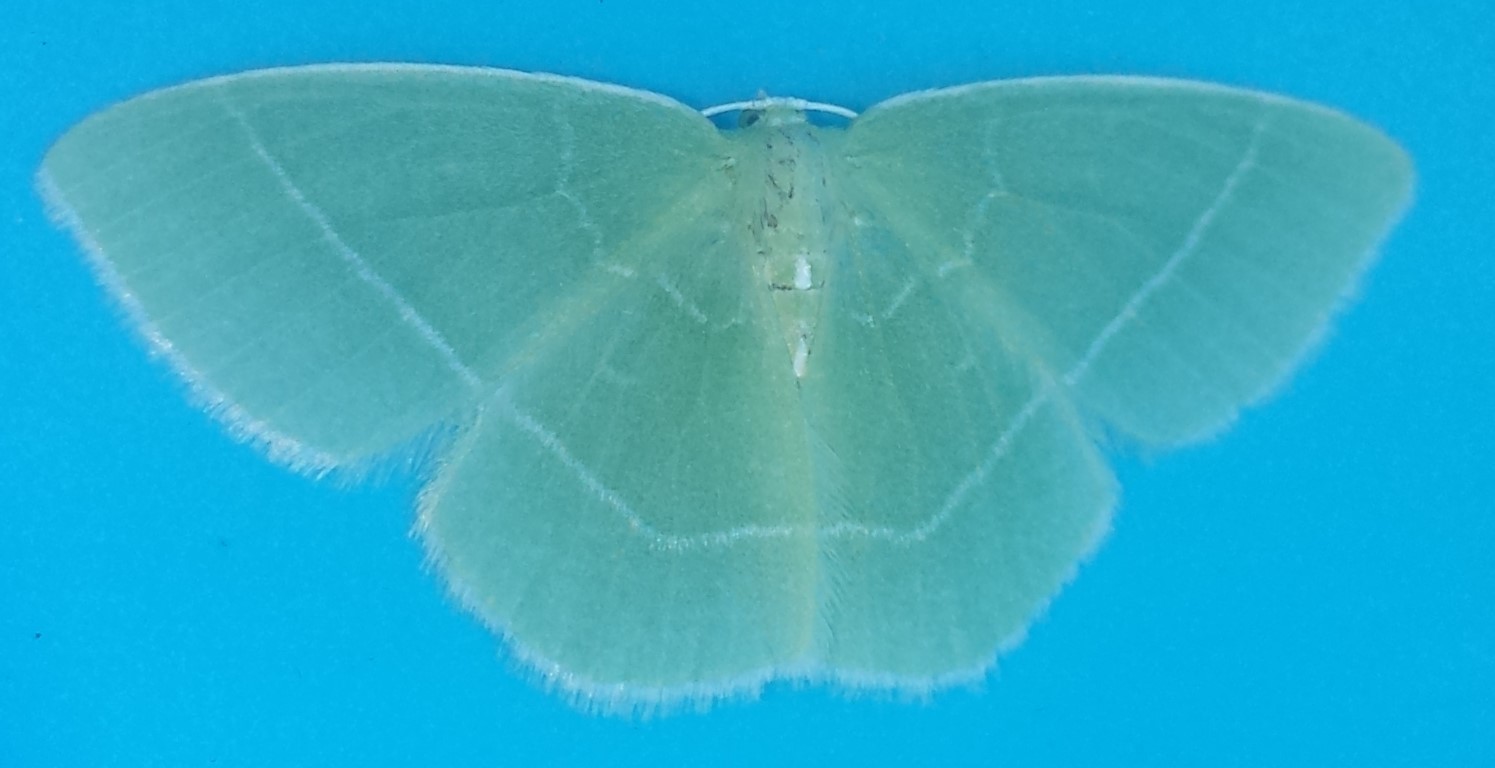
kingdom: Animalia
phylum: Arthropoda
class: Insecta
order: Lepidoptera
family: Geometridae
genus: Nemoria
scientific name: Nemoria mimosaria
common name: White-fringed emerald
